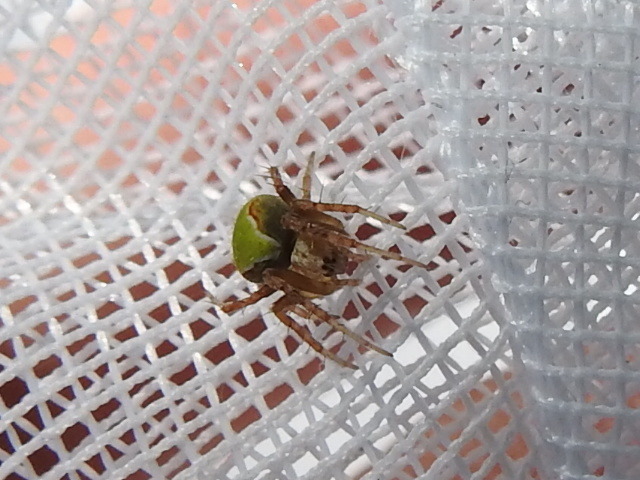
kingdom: Animalia
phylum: Arthropoda
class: Arachnida
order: Araneae
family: Araneidae
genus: Araneus
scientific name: Araneus detrimentosus
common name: Orb weavers
